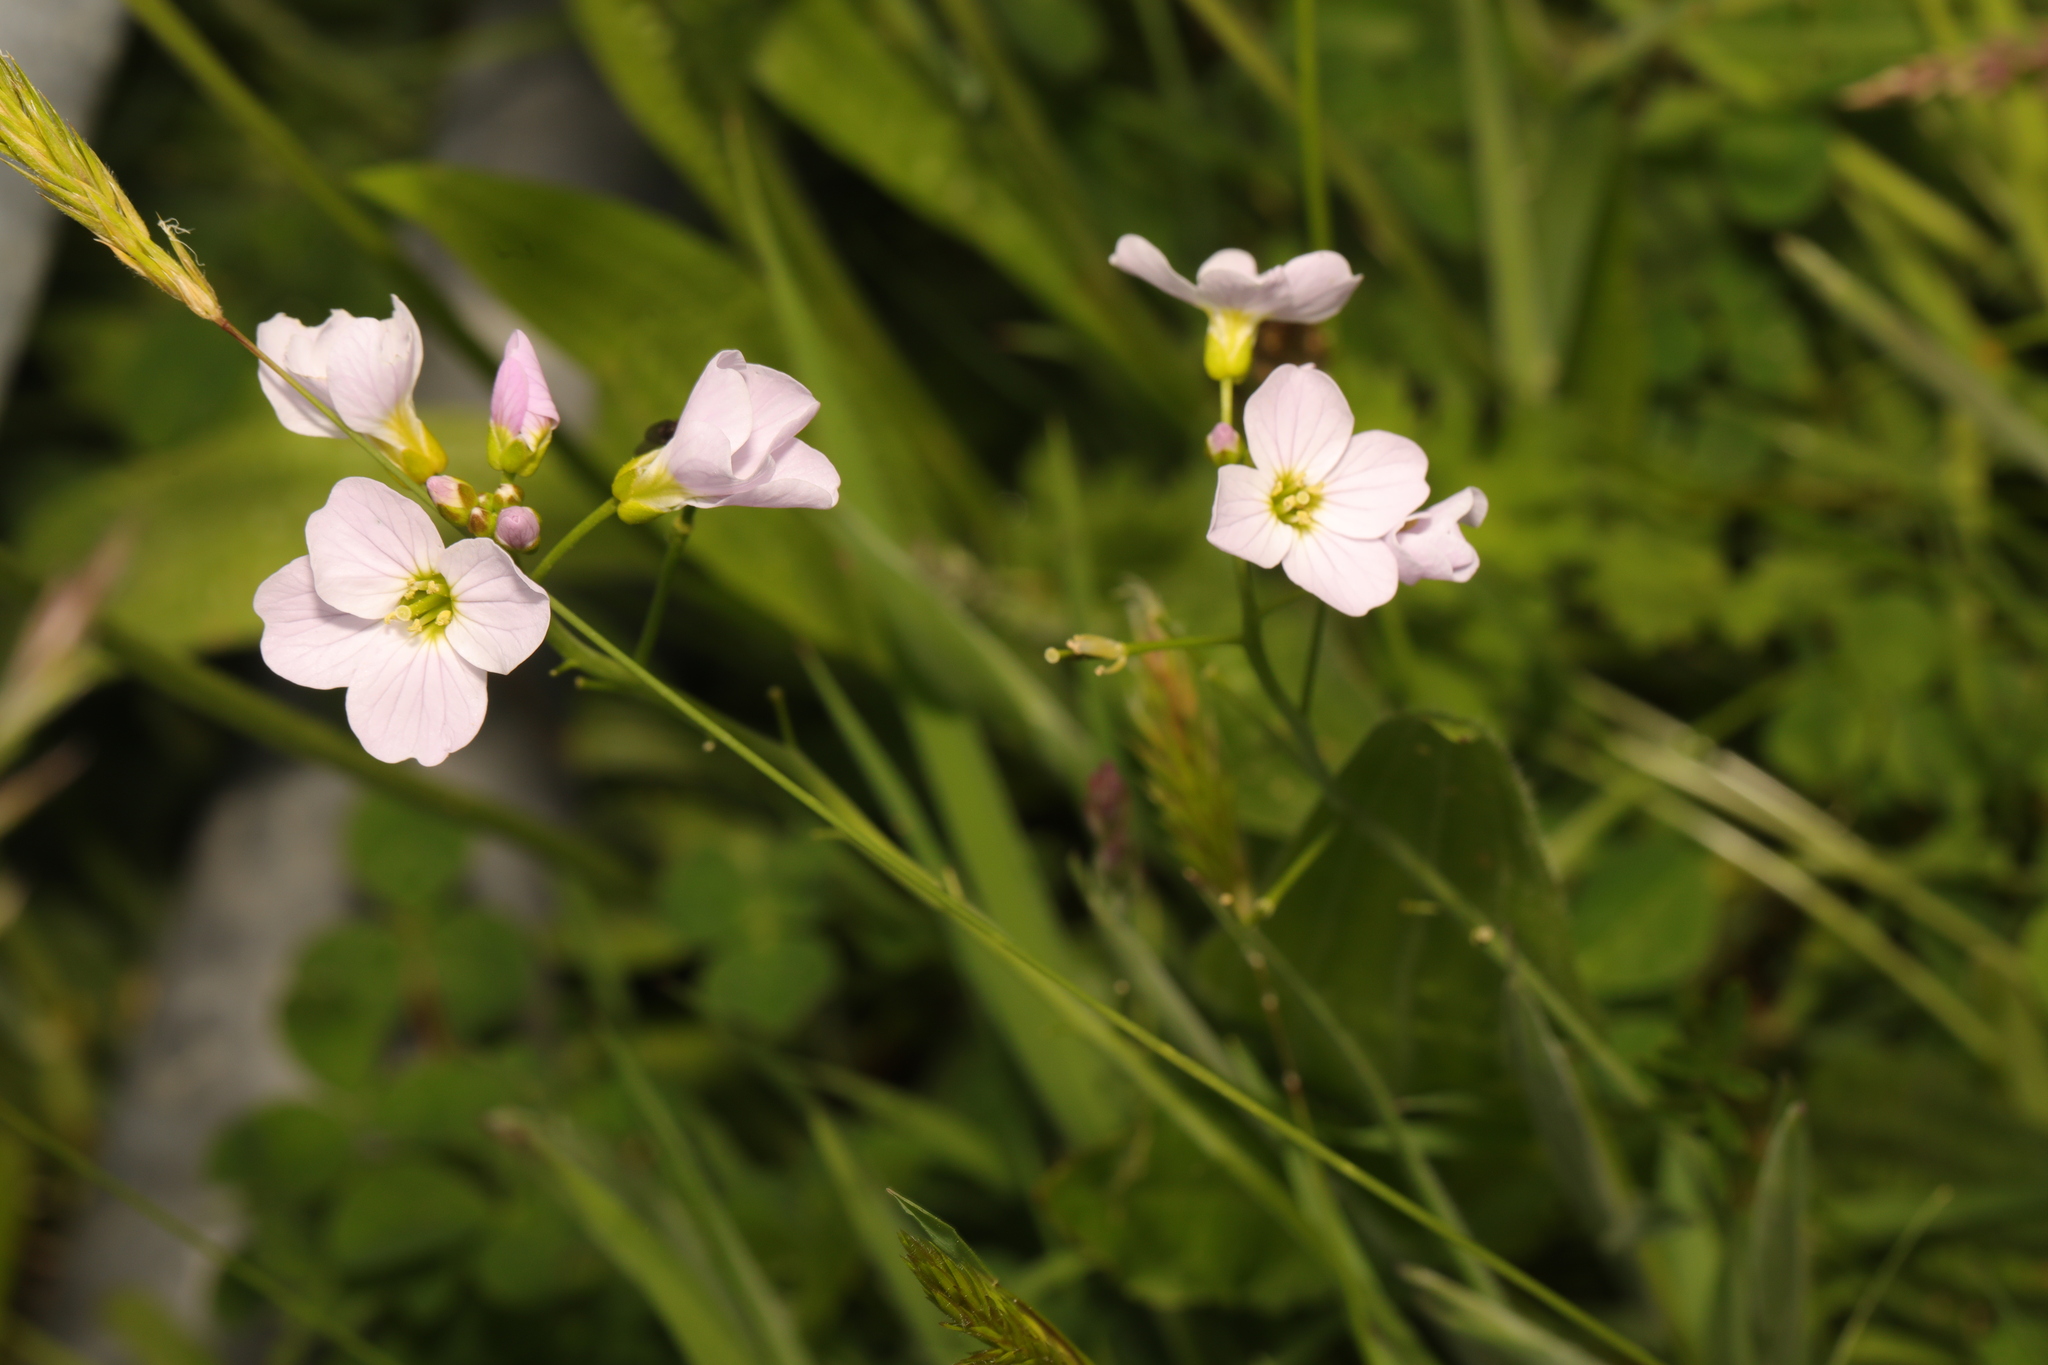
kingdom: Plantae
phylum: Tracheophyta
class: Magnoliopsida
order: Brassicales
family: Brassicaceae
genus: Cardamine
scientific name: Cardamine pratensis
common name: Cuckoo flower
